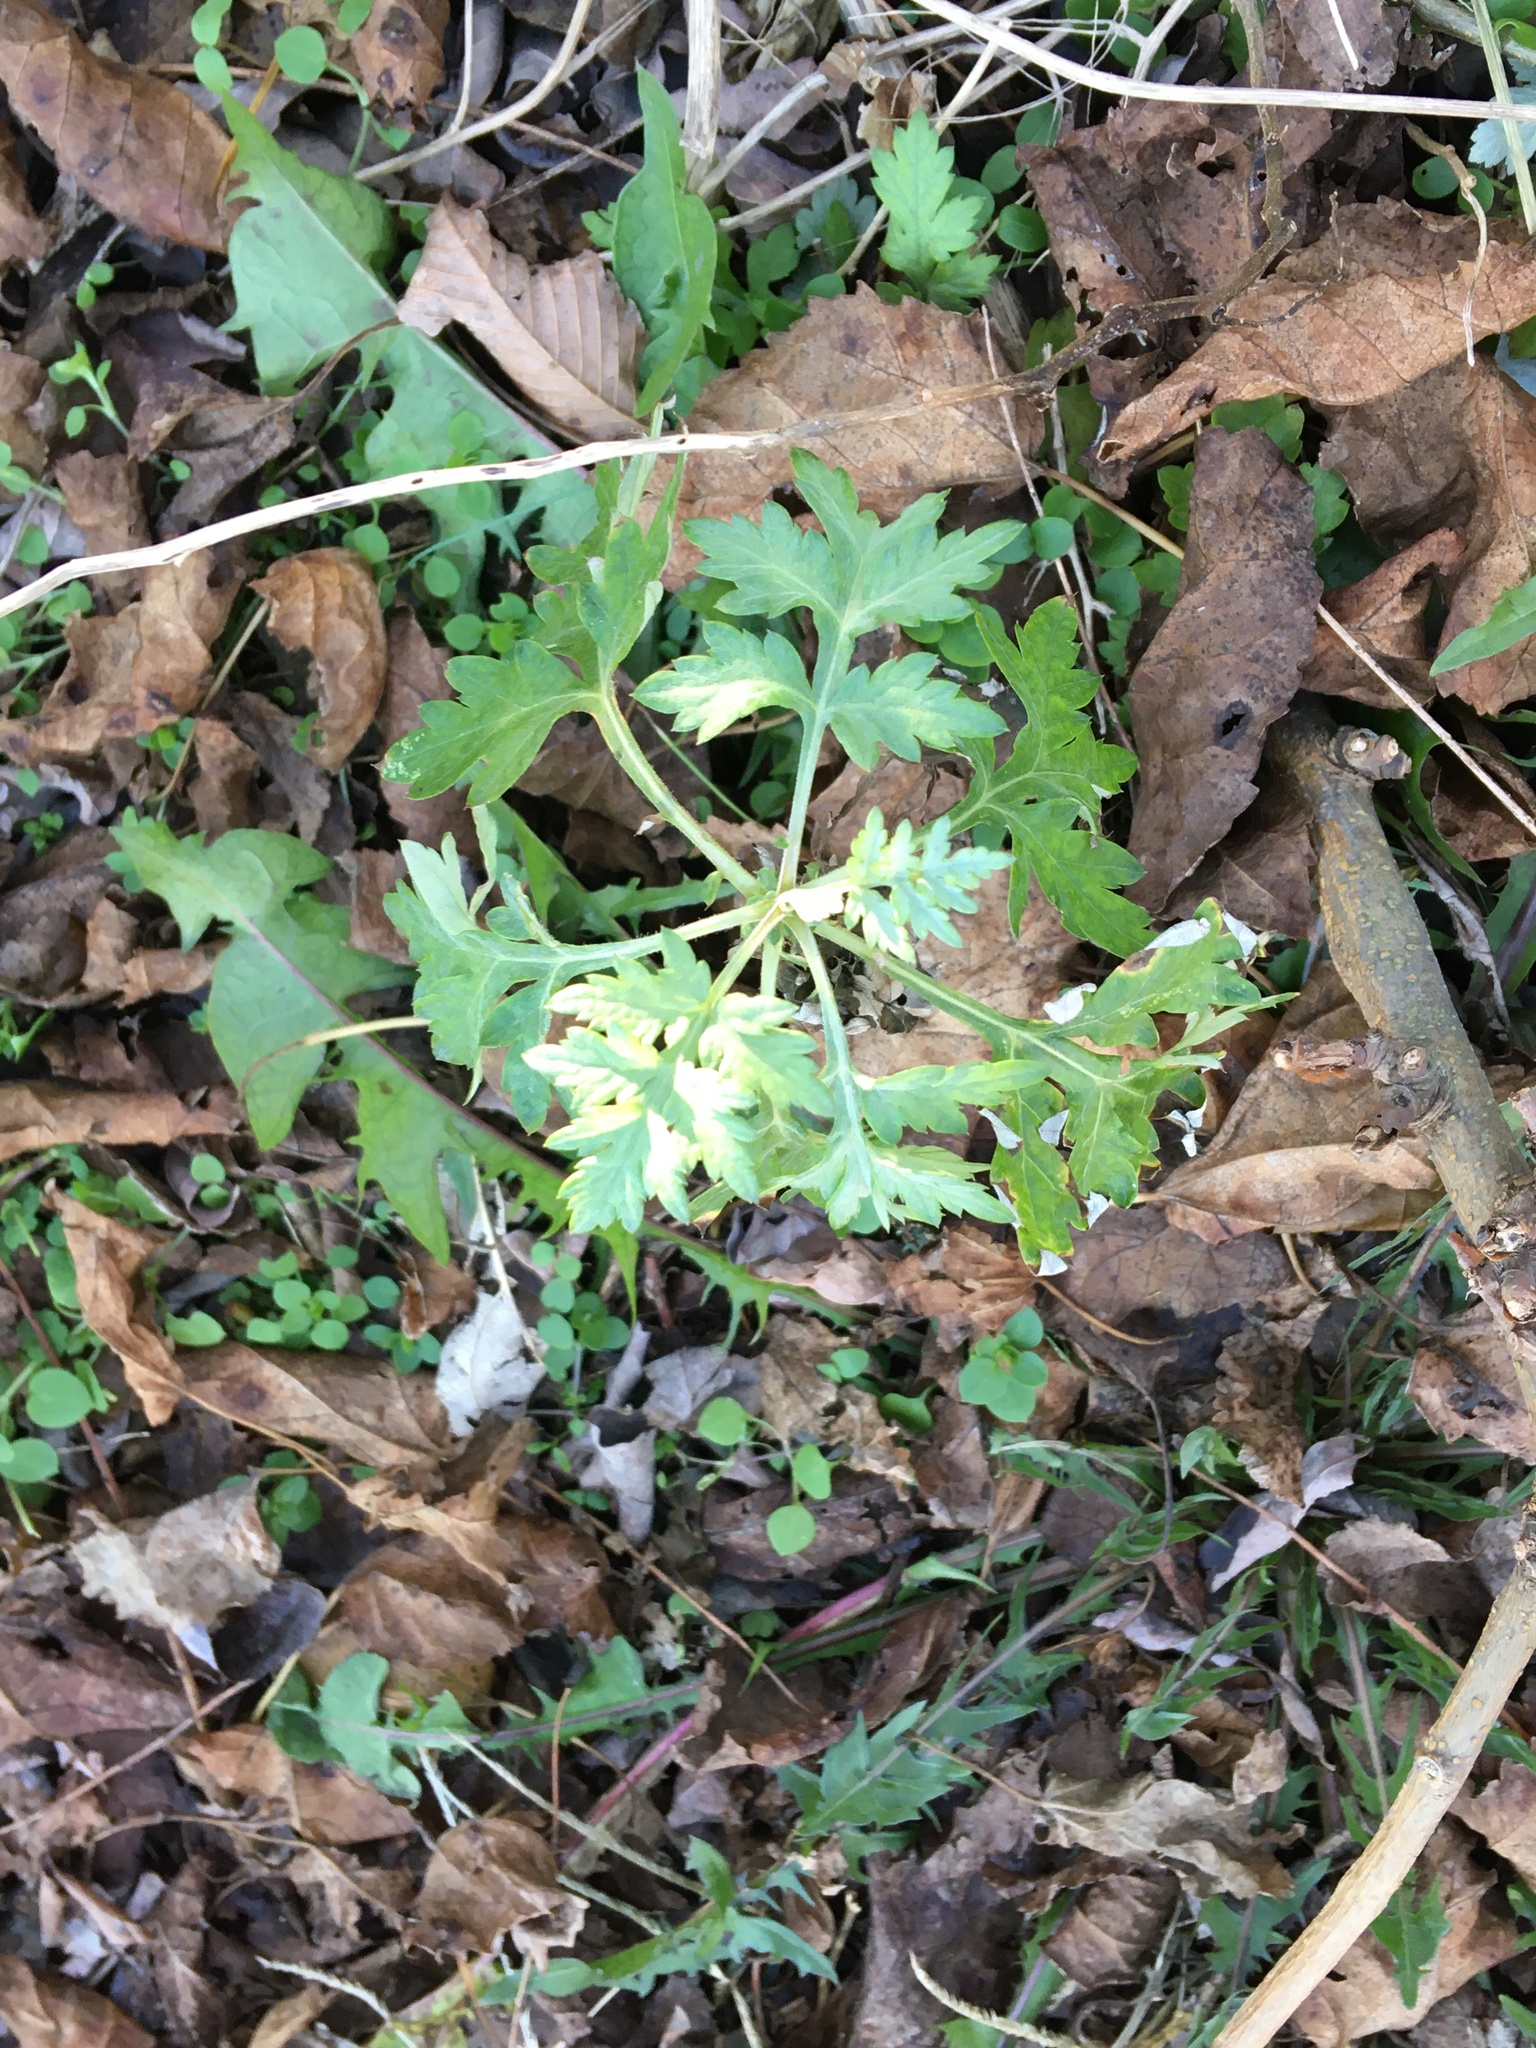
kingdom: Plantae
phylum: Tracheophyta
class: Magnoliopsida
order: Asterales
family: Asteraceae
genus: Artemisia
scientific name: Artemisia vulgaris
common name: Mugwort
